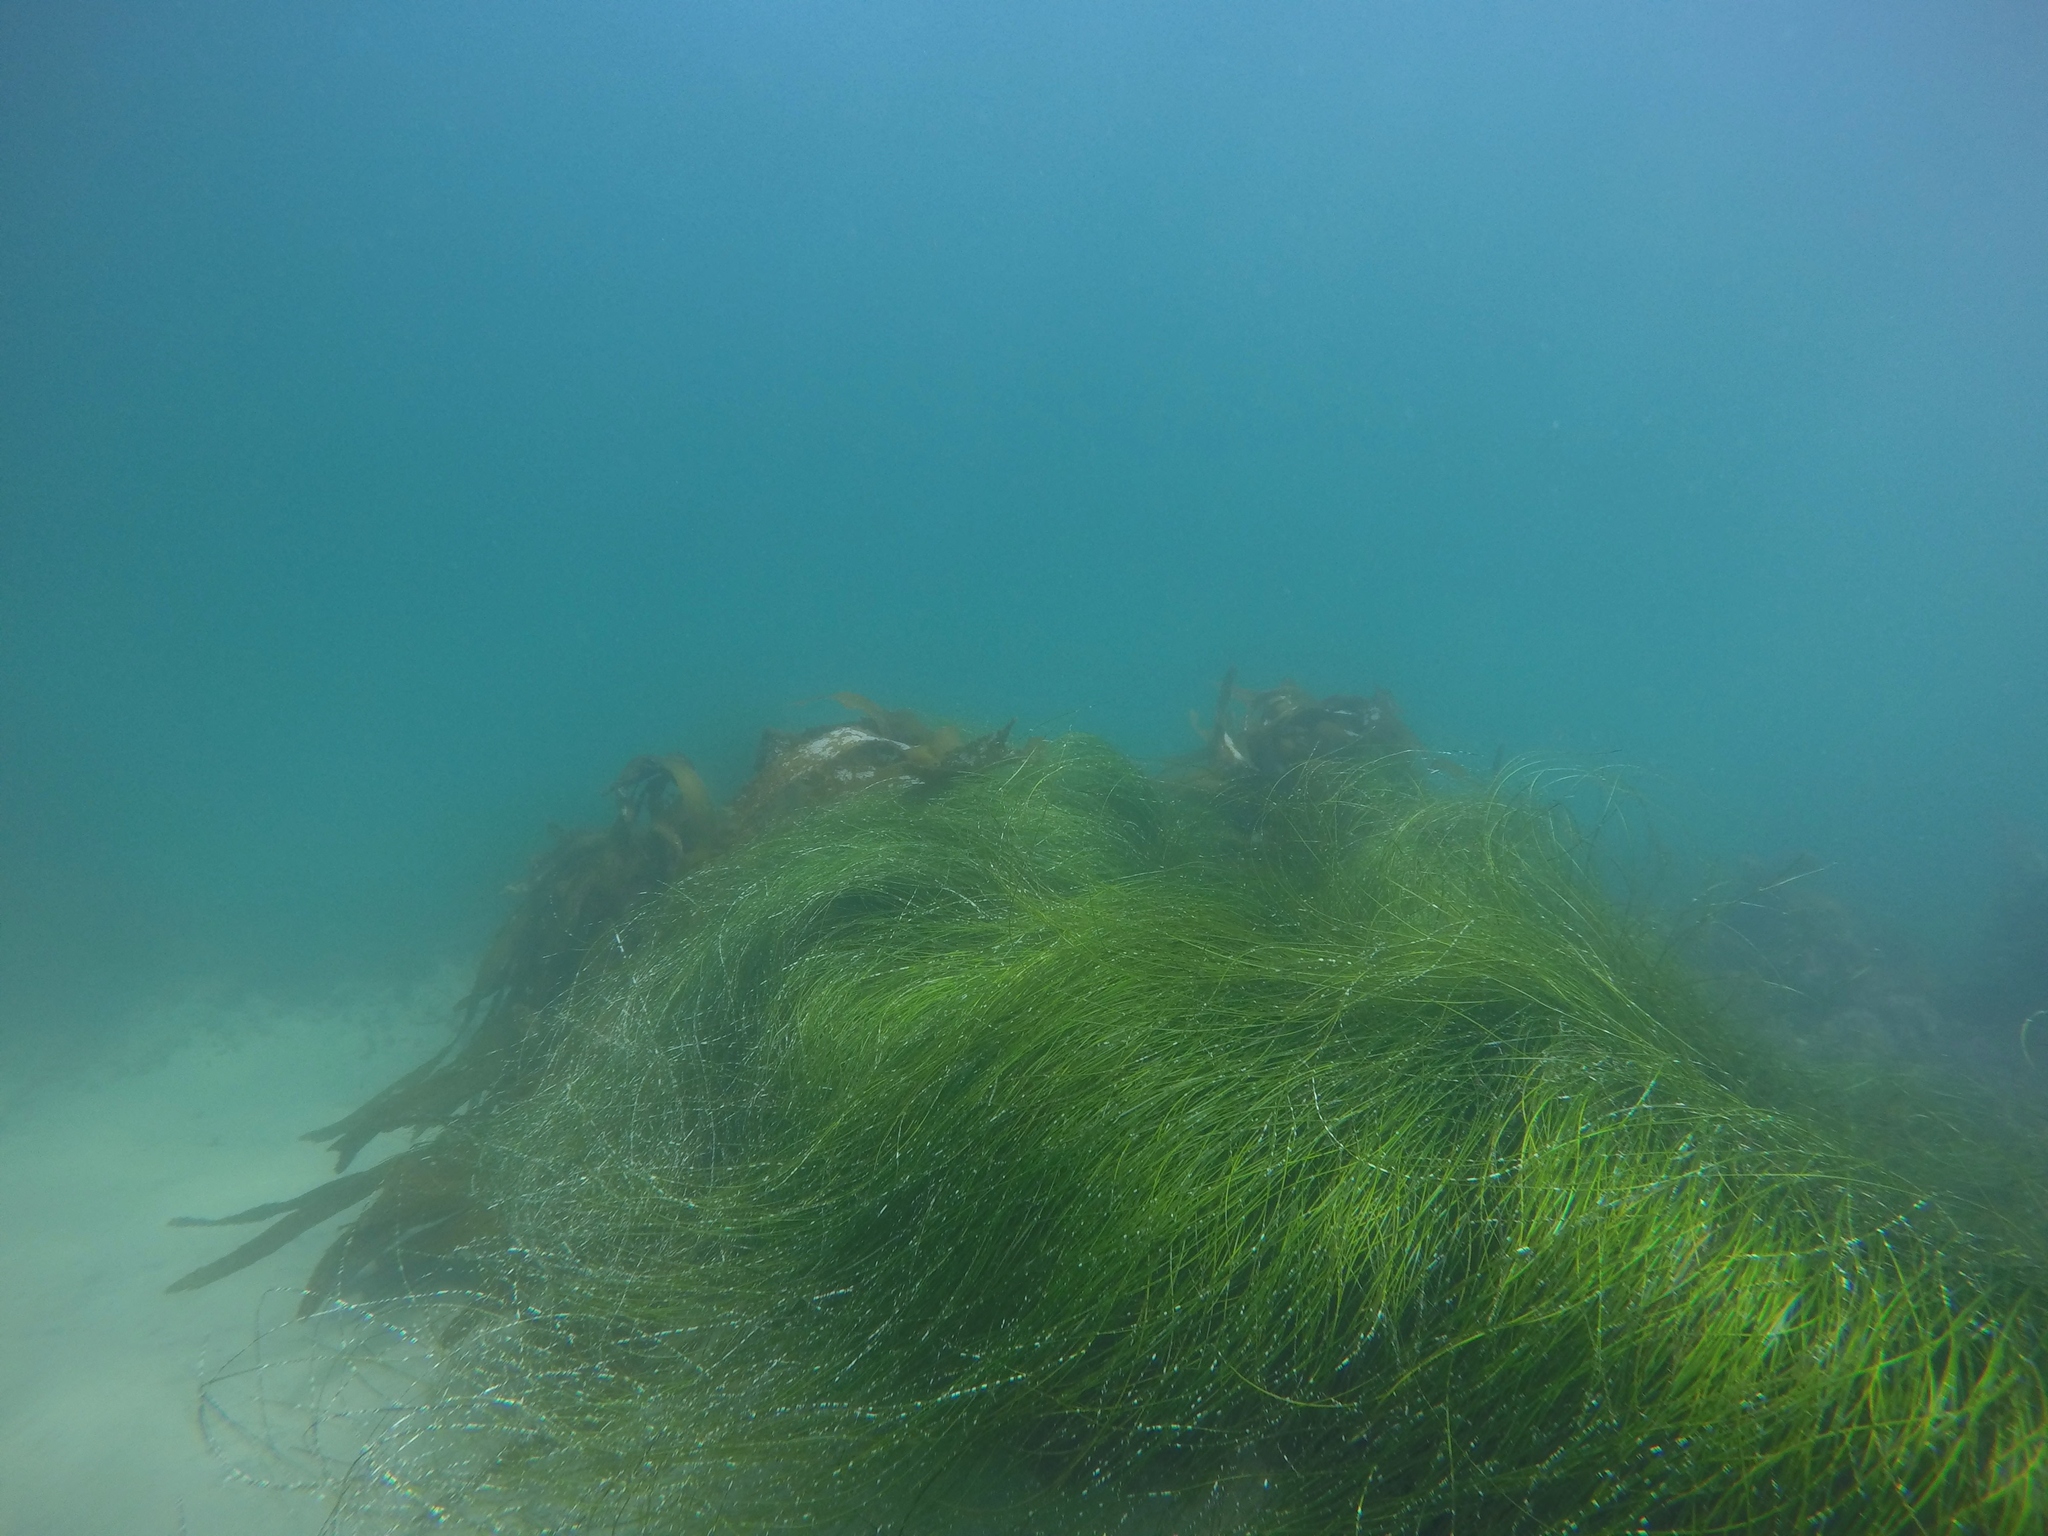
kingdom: Plantae
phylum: Tracheophyta
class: Liliopsida
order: Alismatales
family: Zosteraceae
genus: Phyllospadix
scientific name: Phyllospadix torreyi
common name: Surfgrass
